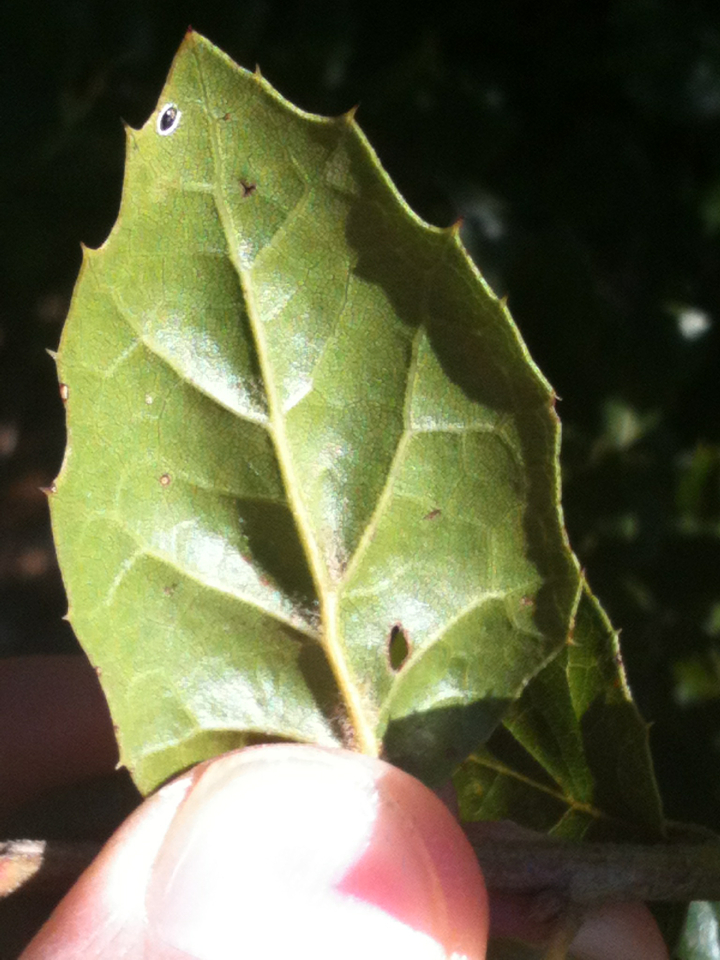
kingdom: Plantae
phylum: Tracheophyta
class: Magnoliopsida
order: Fagales
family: Fagaceae
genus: Quercus
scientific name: Quercus agrifolia
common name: California live oak
